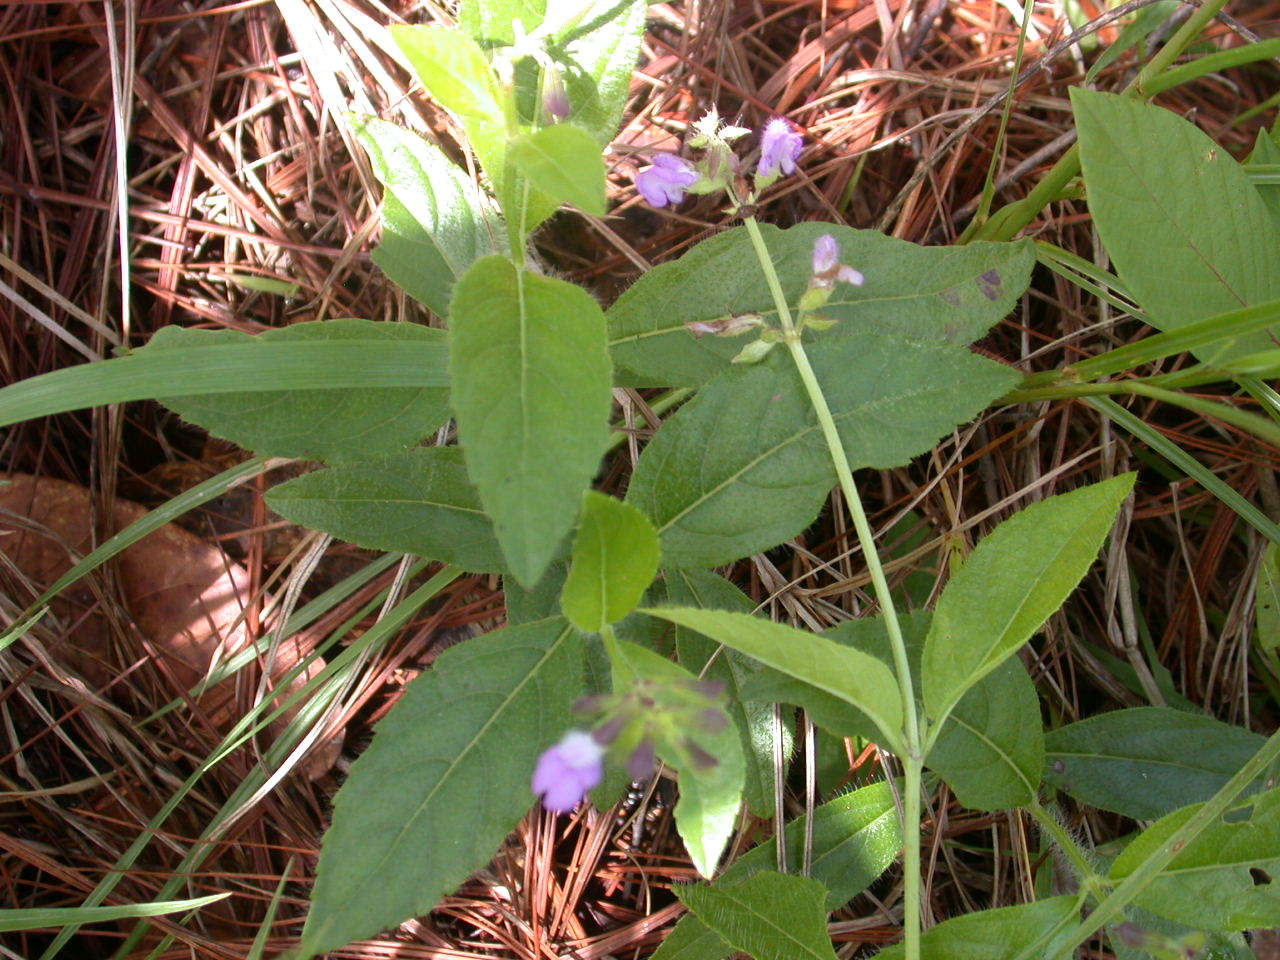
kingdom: Plantae
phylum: Tracheophyta
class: Magnoliopsida
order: Lamiales
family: Lamiaceae
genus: Salvia
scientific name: Salvia duripes
